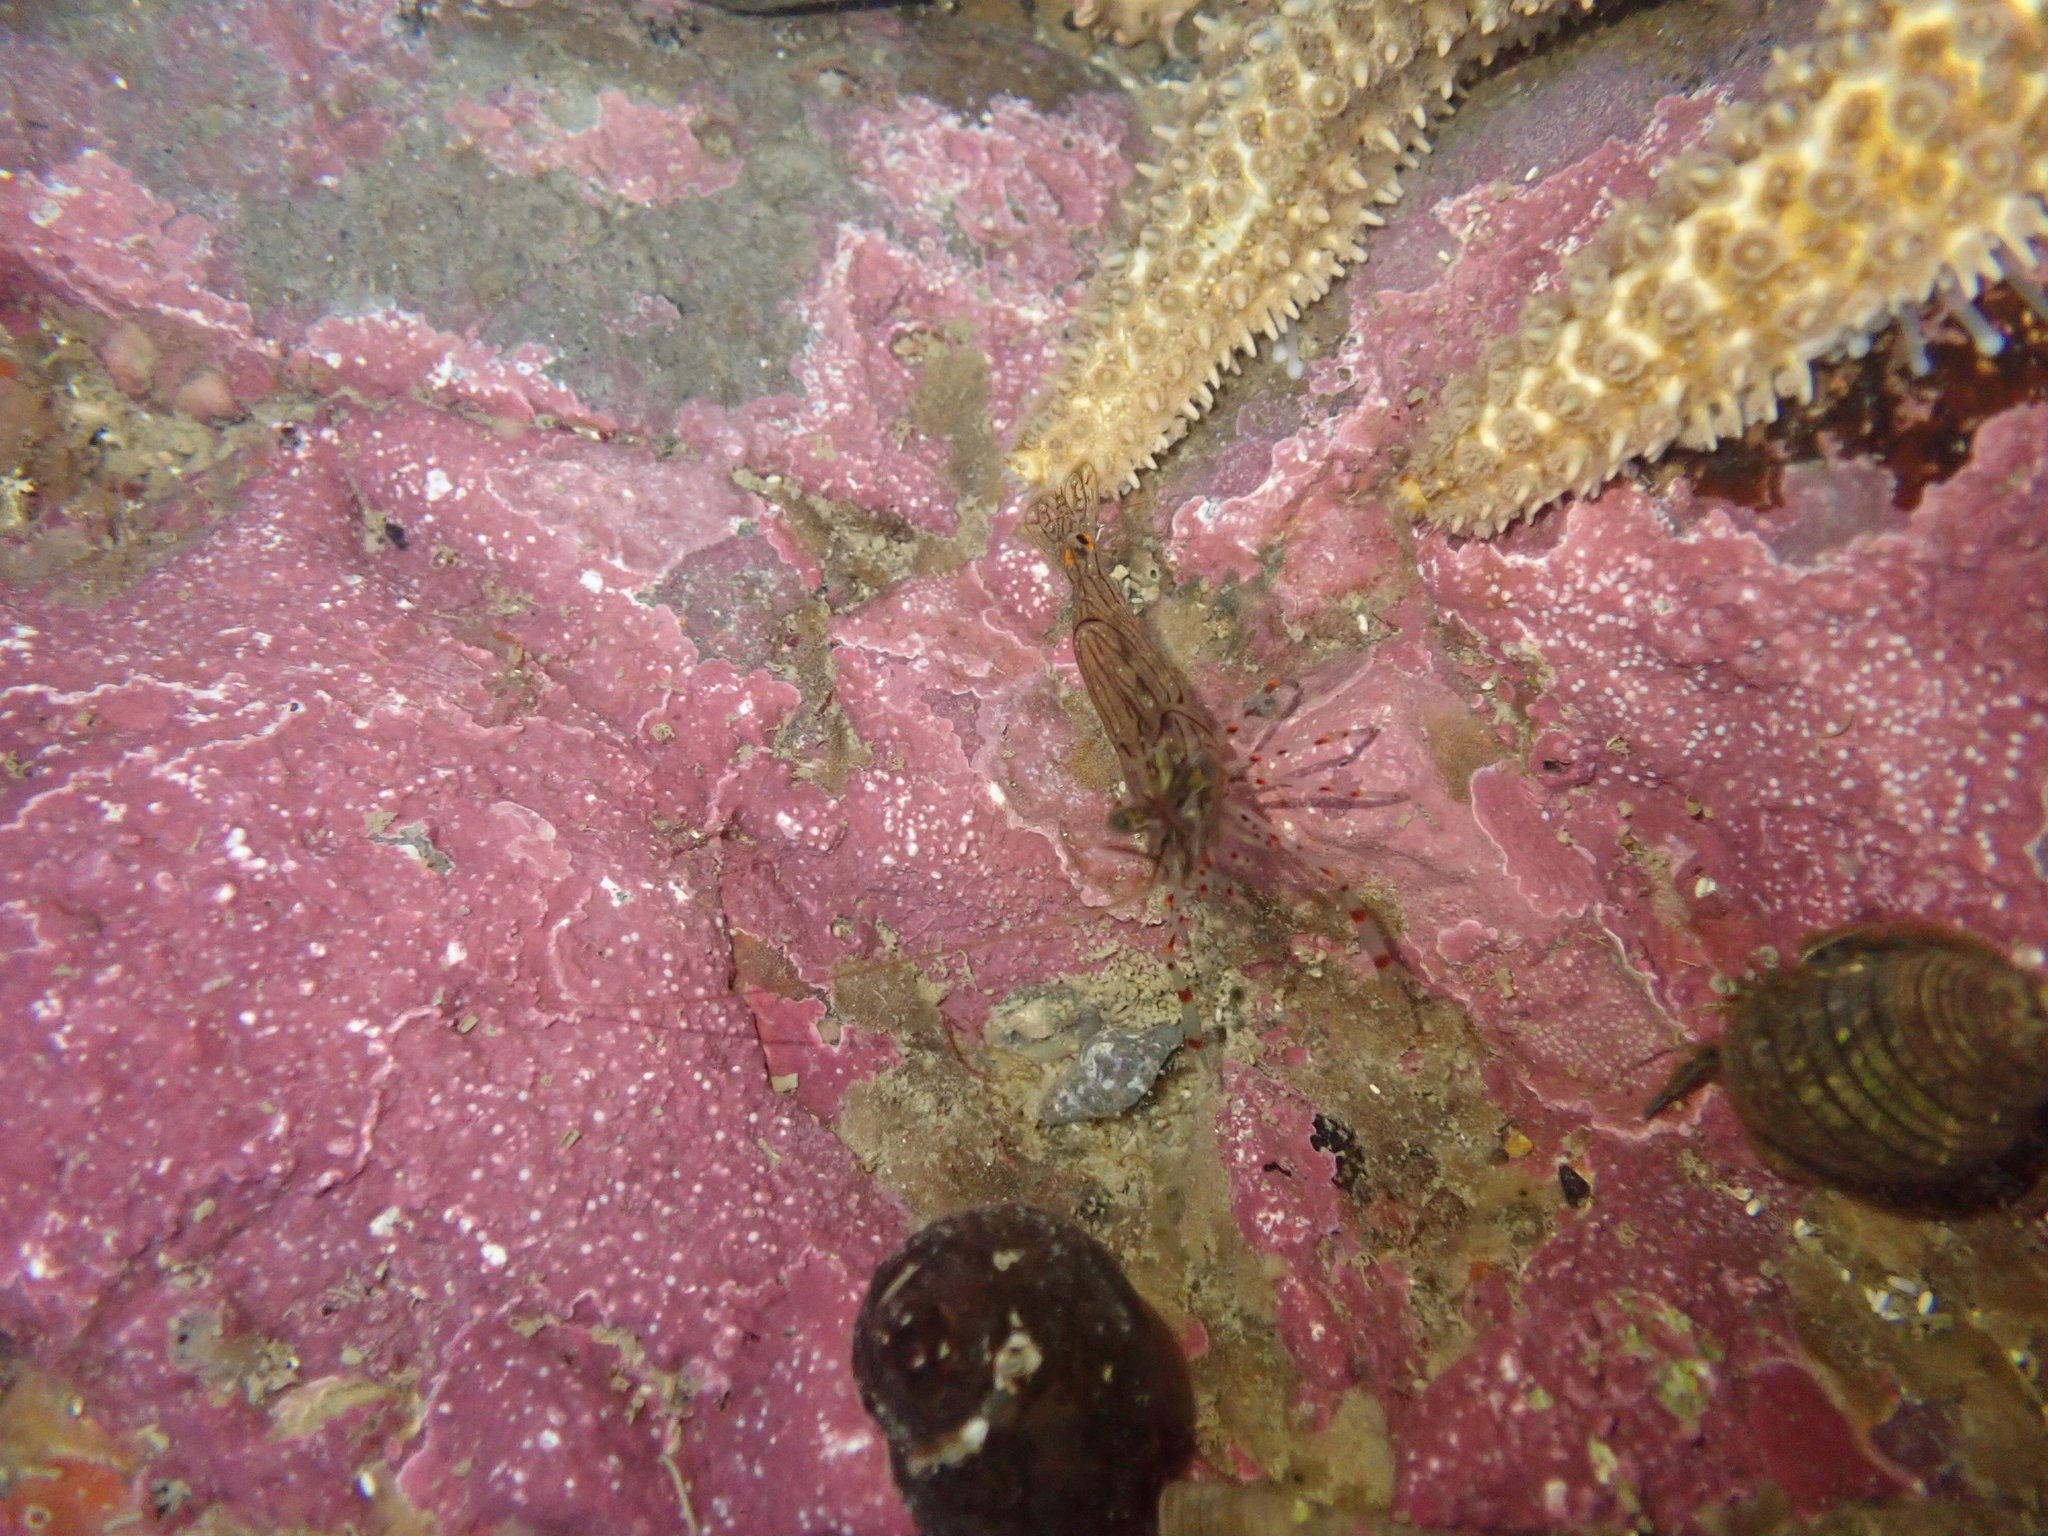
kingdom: Animalia
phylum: Arthropoda
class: Malacostraca
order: Decapoda
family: Palaemonidae
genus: Palaemon
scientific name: Palaemon affinis
